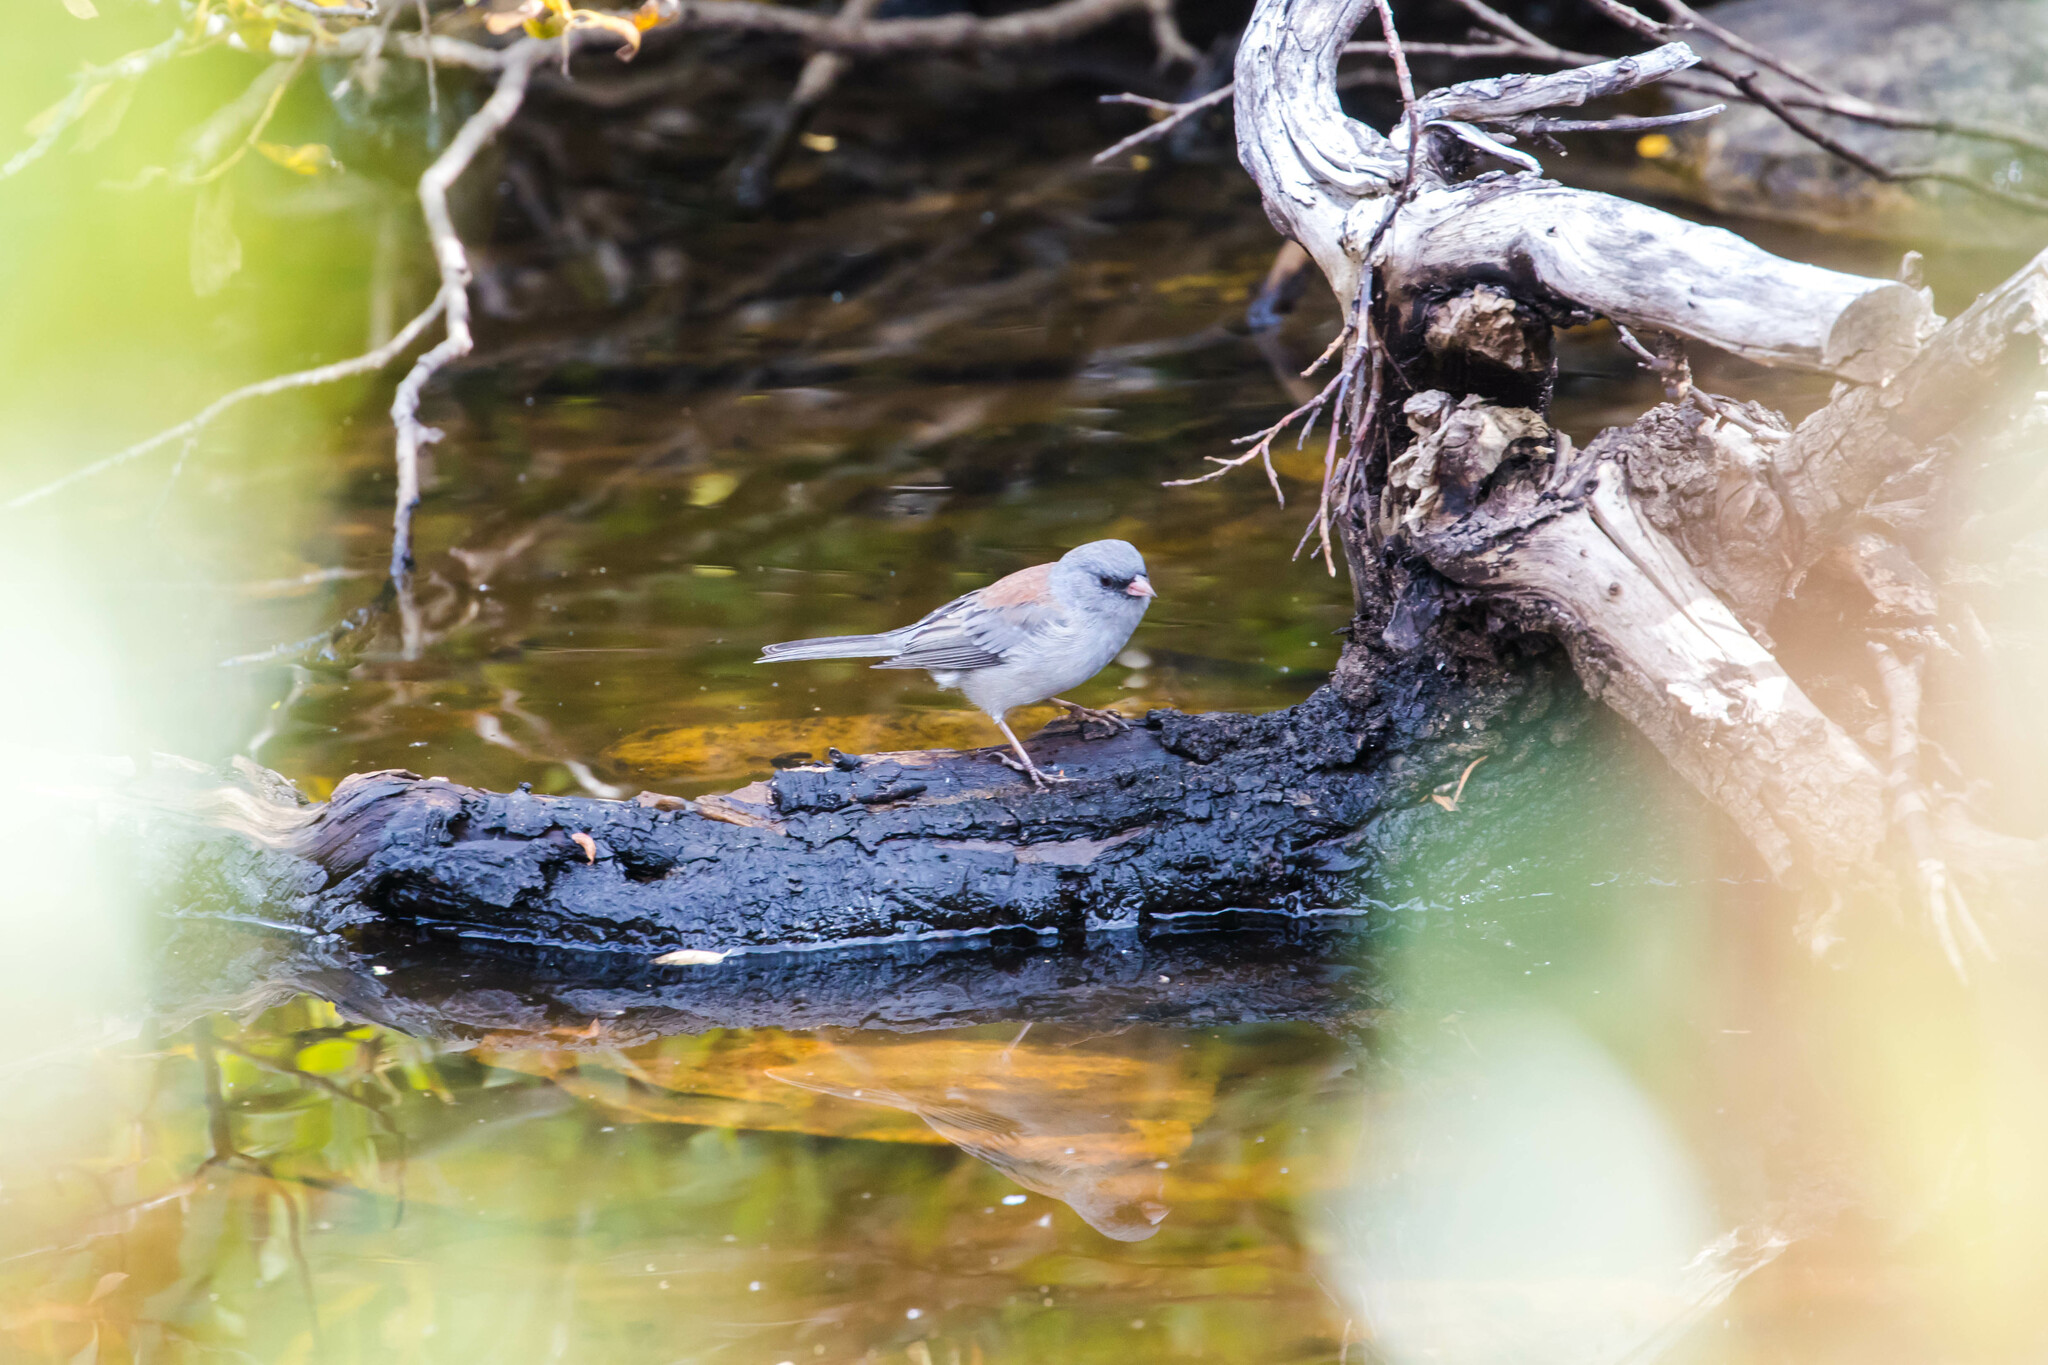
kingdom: Animalia
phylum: Chordata
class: Aves
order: Passeriformes
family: Passerellidae
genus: Junco
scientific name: Junco hyemalis
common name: Dark-eyed junco
